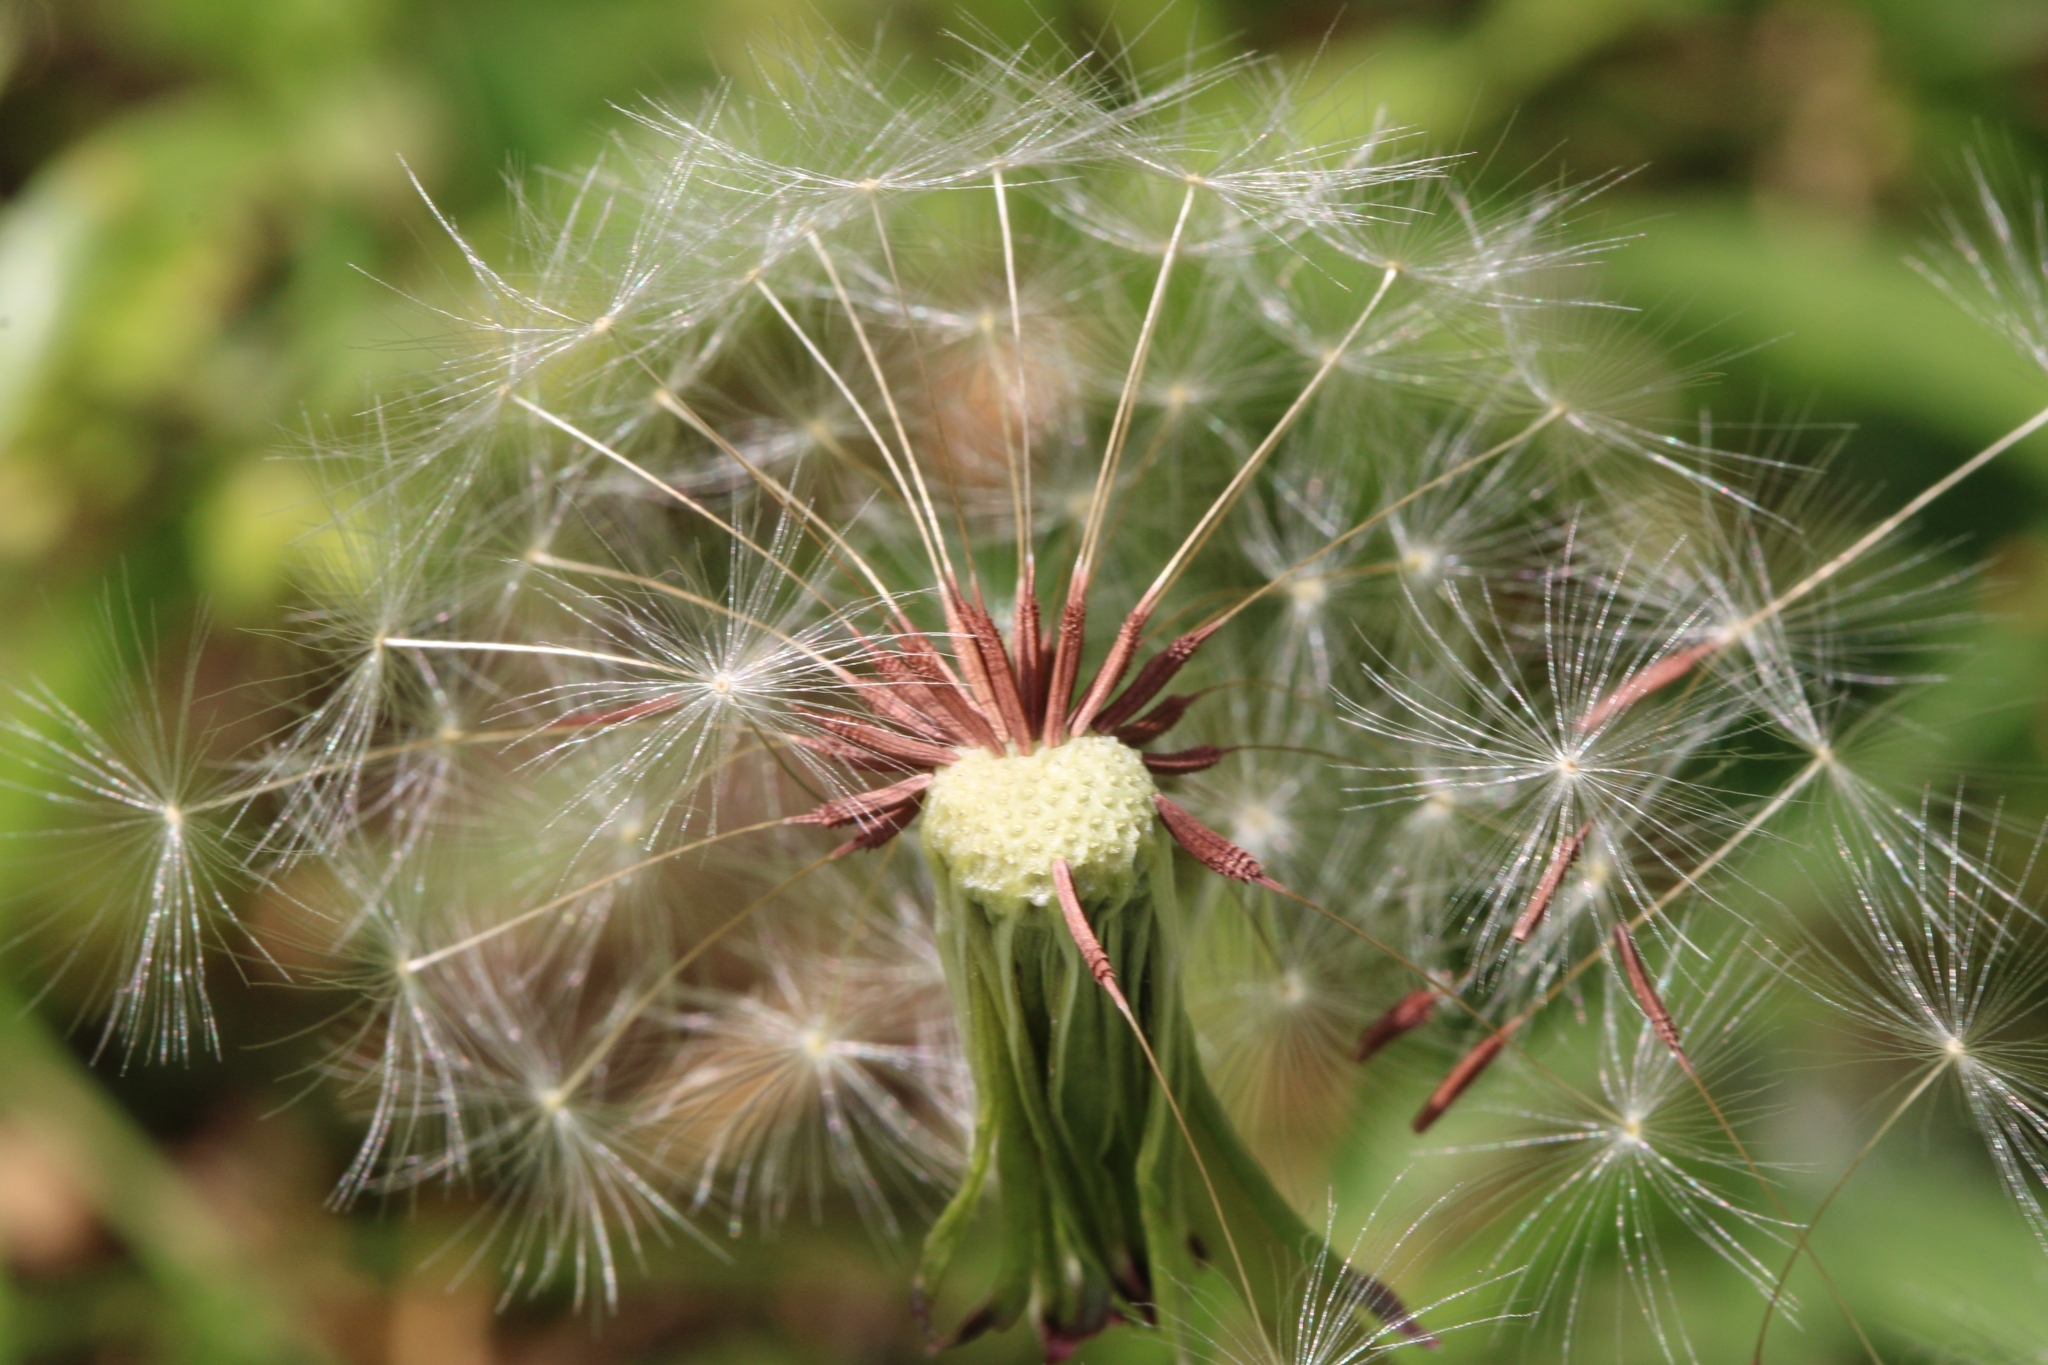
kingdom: Plantae
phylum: Tracheophyta
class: Magnoliopsida
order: Asterales
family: Asteraceae
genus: Taraxacum
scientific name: Taraxacum erythrospermum
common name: Rock dandelion
